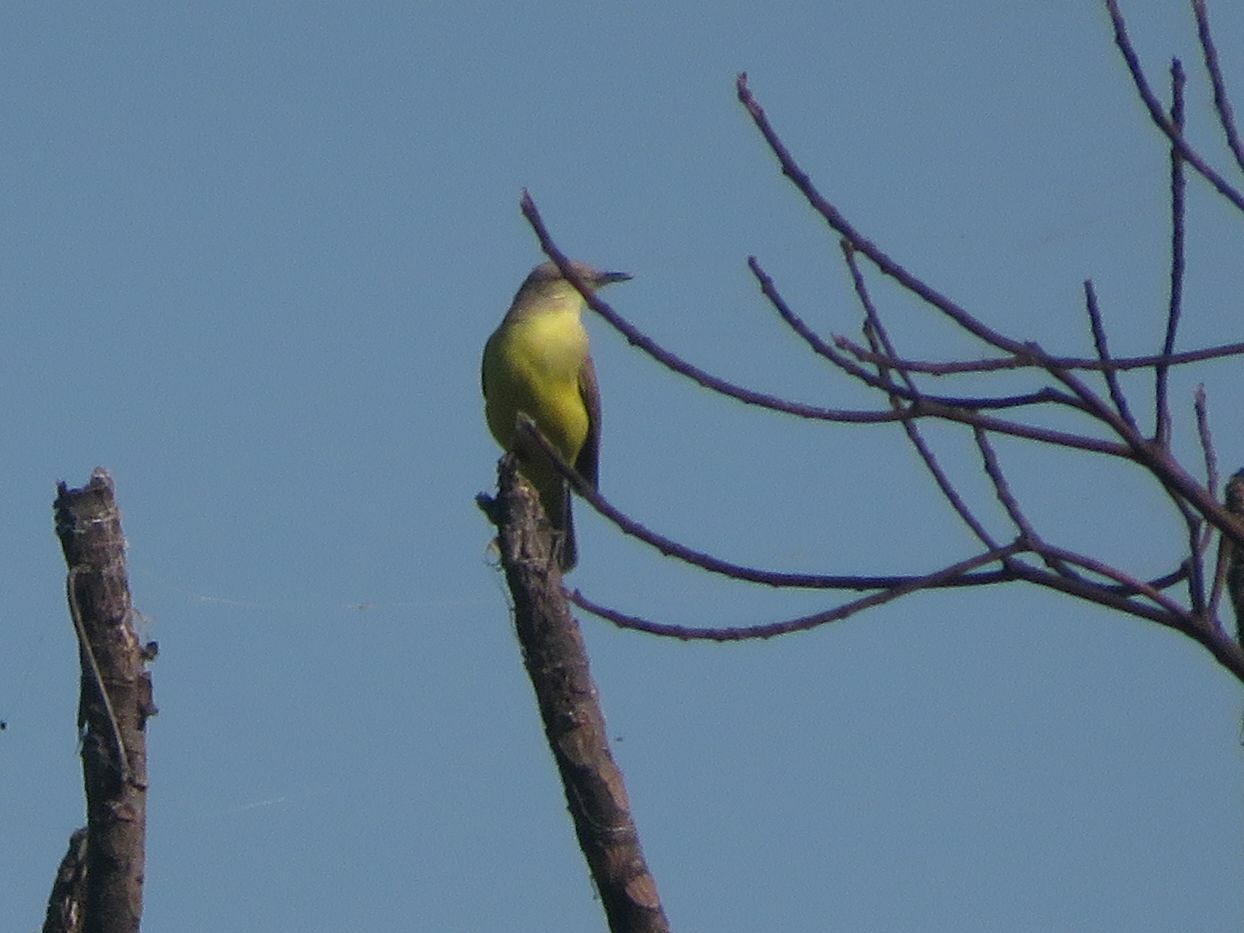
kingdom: Animalia
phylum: Chordata
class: Aves
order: Passeriformes
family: Tyrannidae
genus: Machetornis
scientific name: Machetornis rixosa
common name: Cattle tyrant
